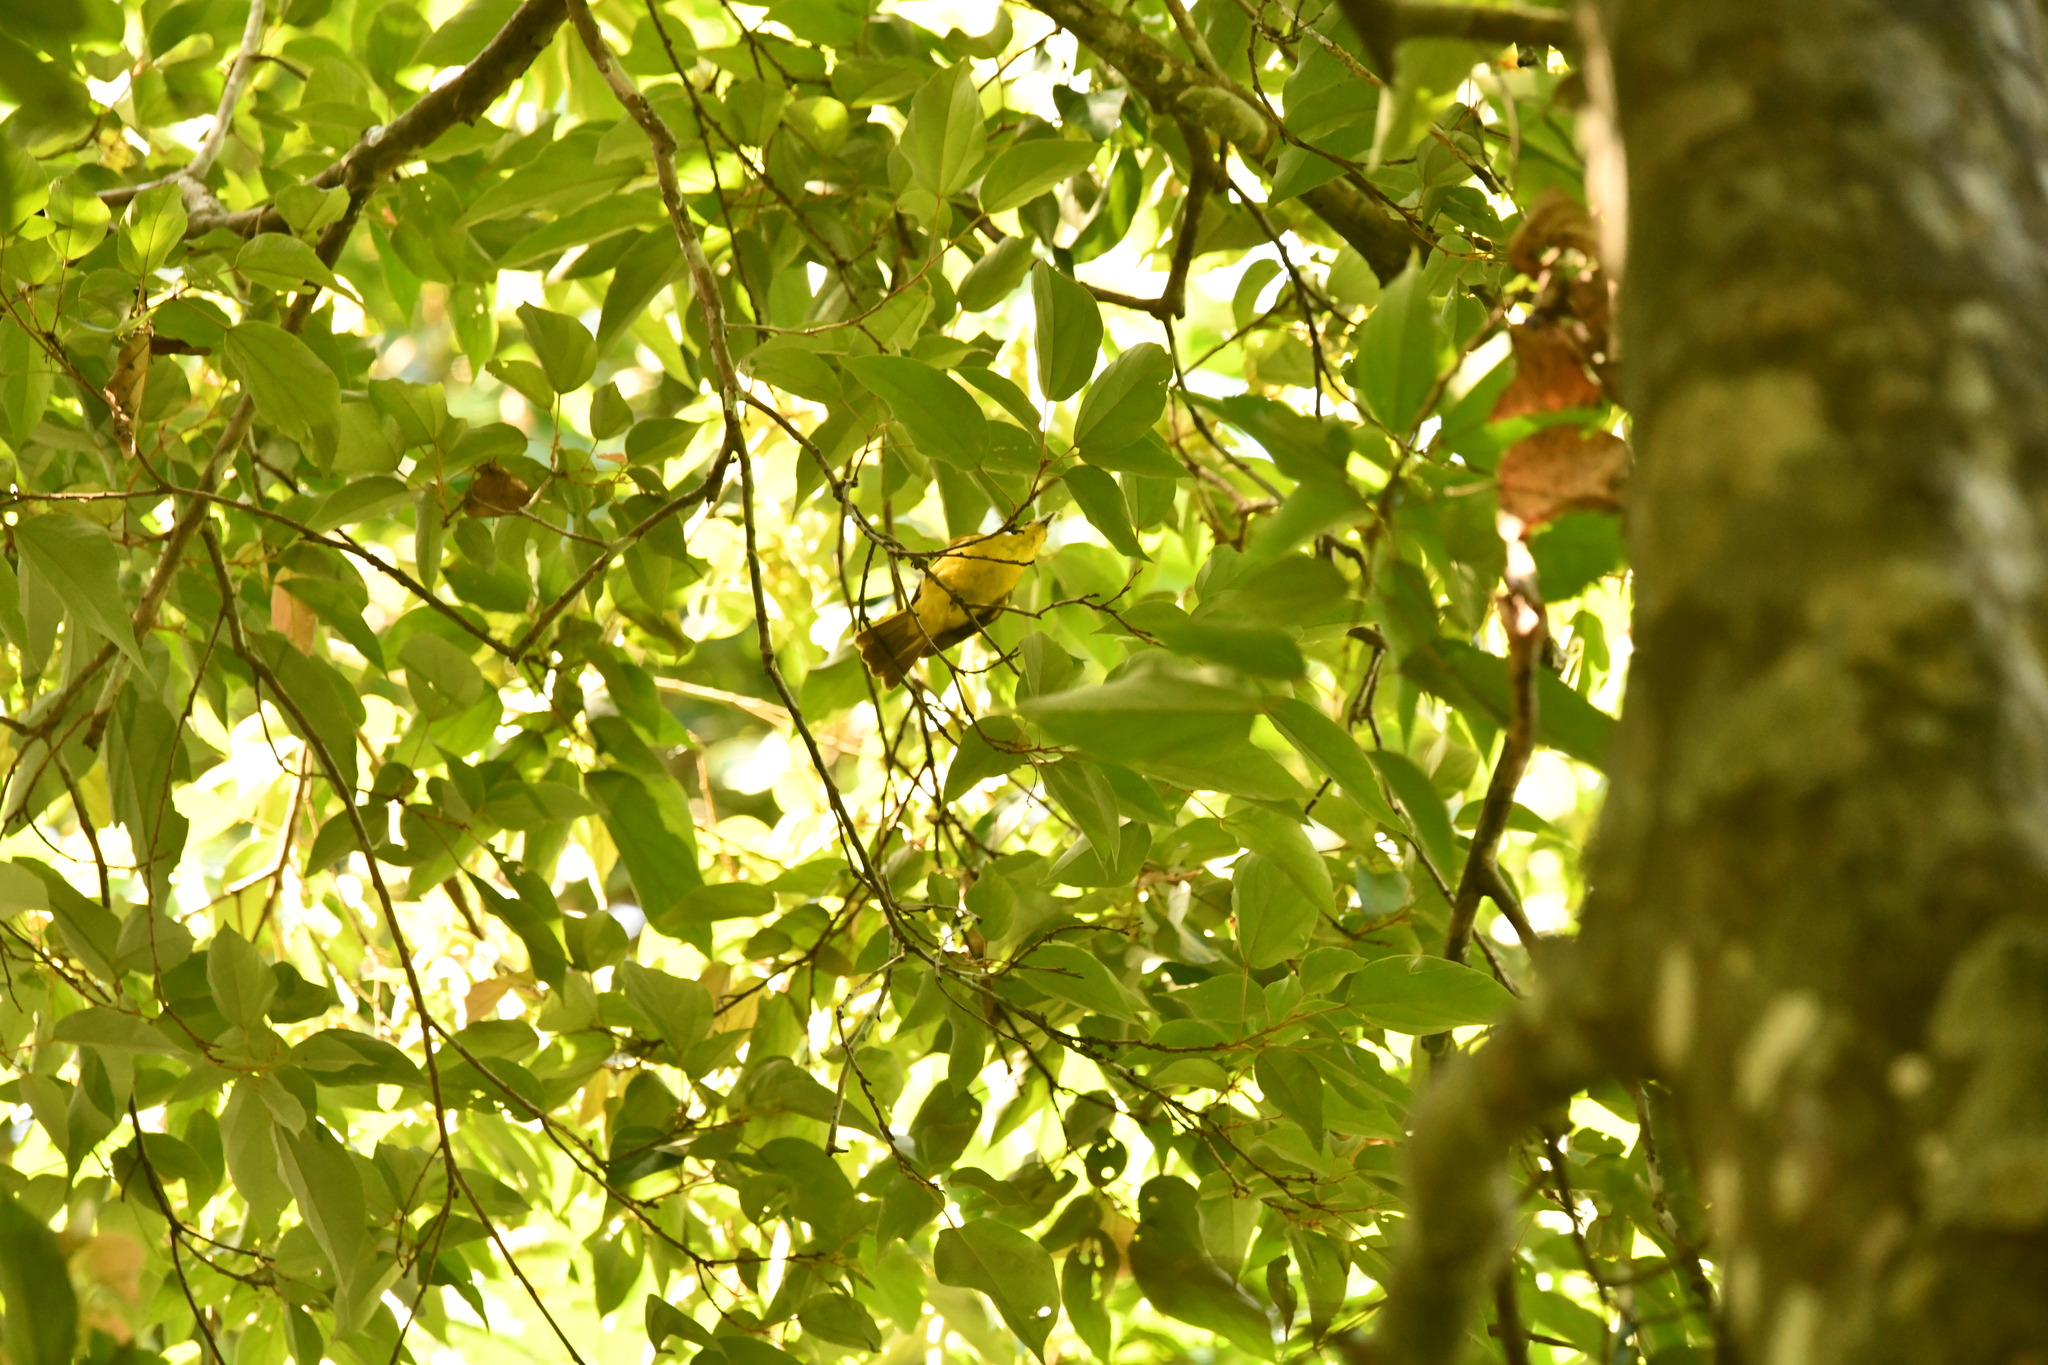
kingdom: Animalia
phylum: Chordata
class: Aves
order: Passeriformes
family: Pycnonotidae
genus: Acritillas
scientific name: Acritillas indica
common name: Yellow-browed bulbul
